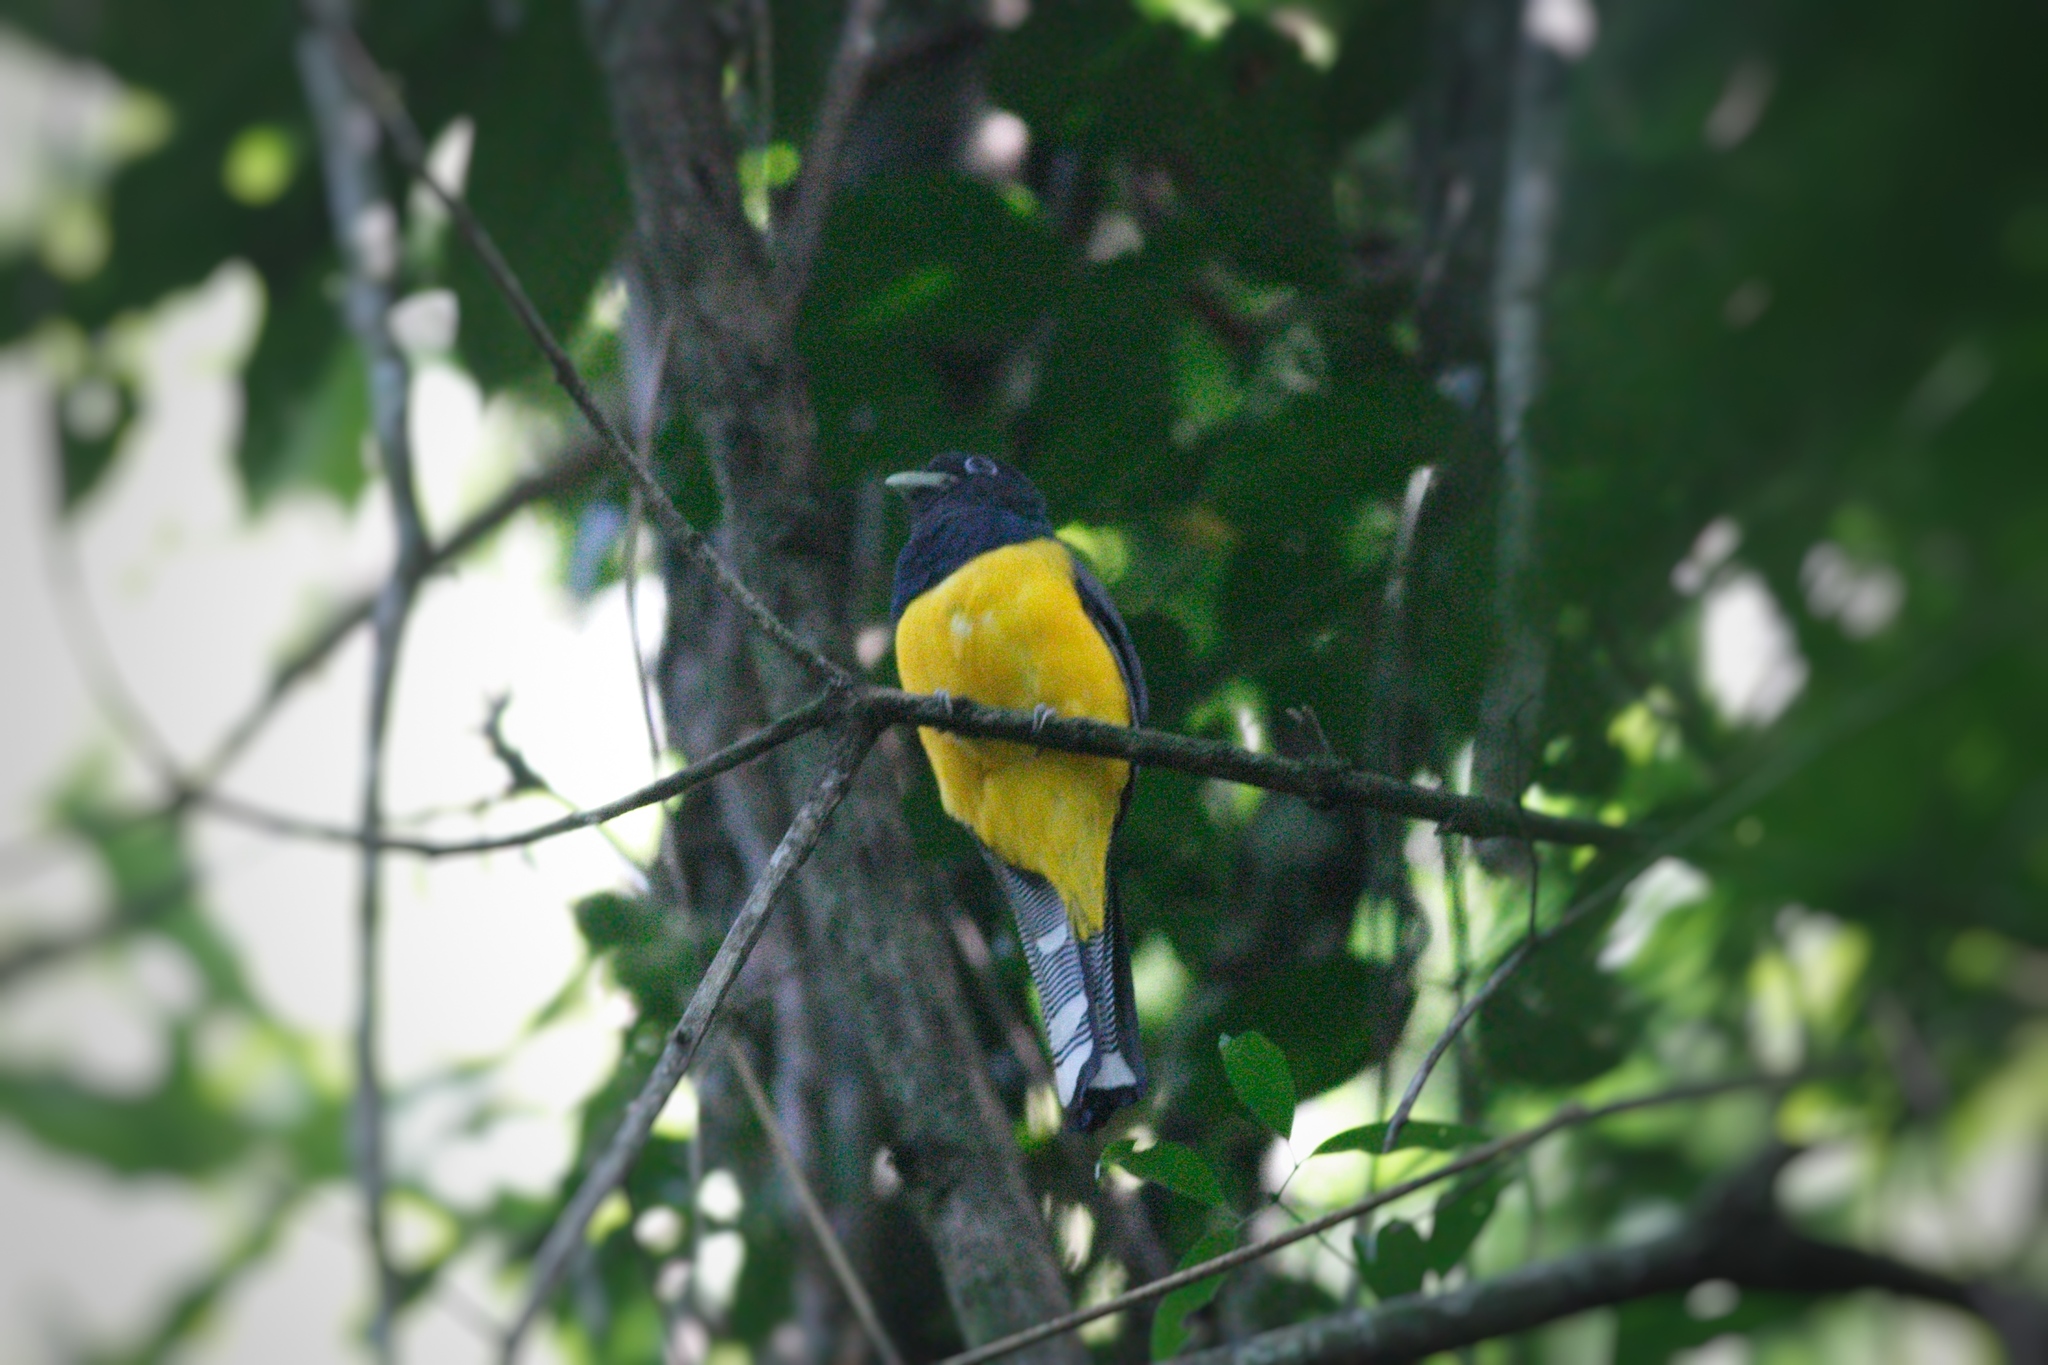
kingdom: Animalia
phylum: Chordata
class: Aves
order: Trogoniformes
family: Trogonidae
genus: Trogon
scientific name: Trogon rufus
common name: Black-throated trogon
